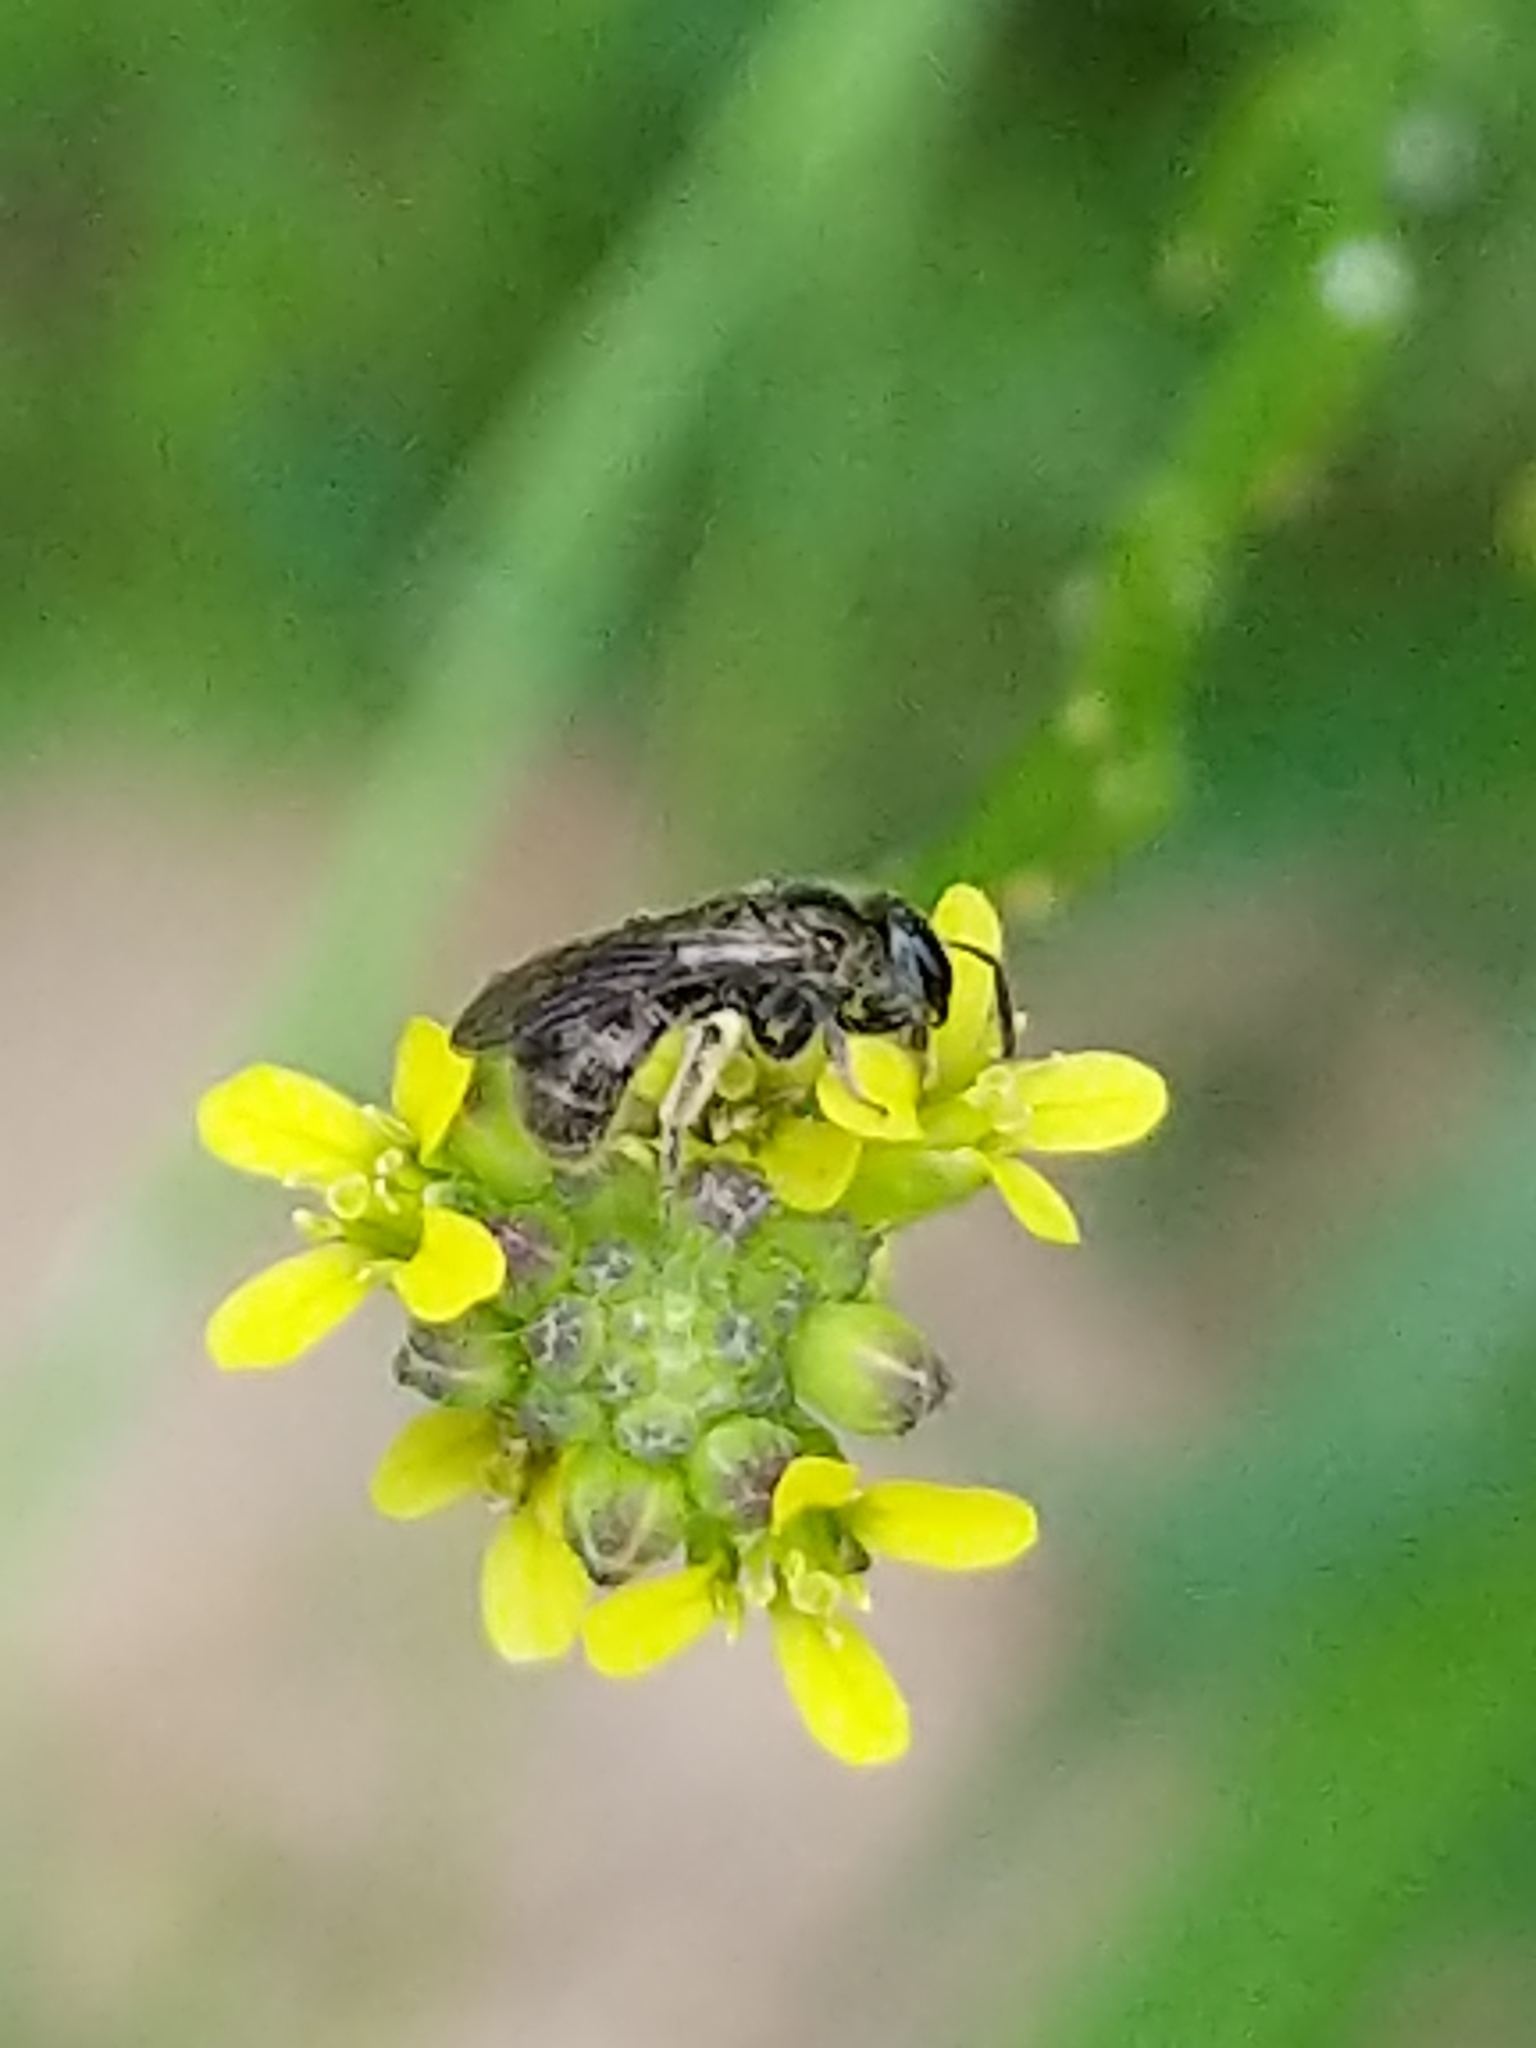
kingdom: Animalia
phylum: Arthropoda
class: Insecta
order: Hymenoptera
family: Halictidae
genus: Dialictus
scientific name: Dialictus
